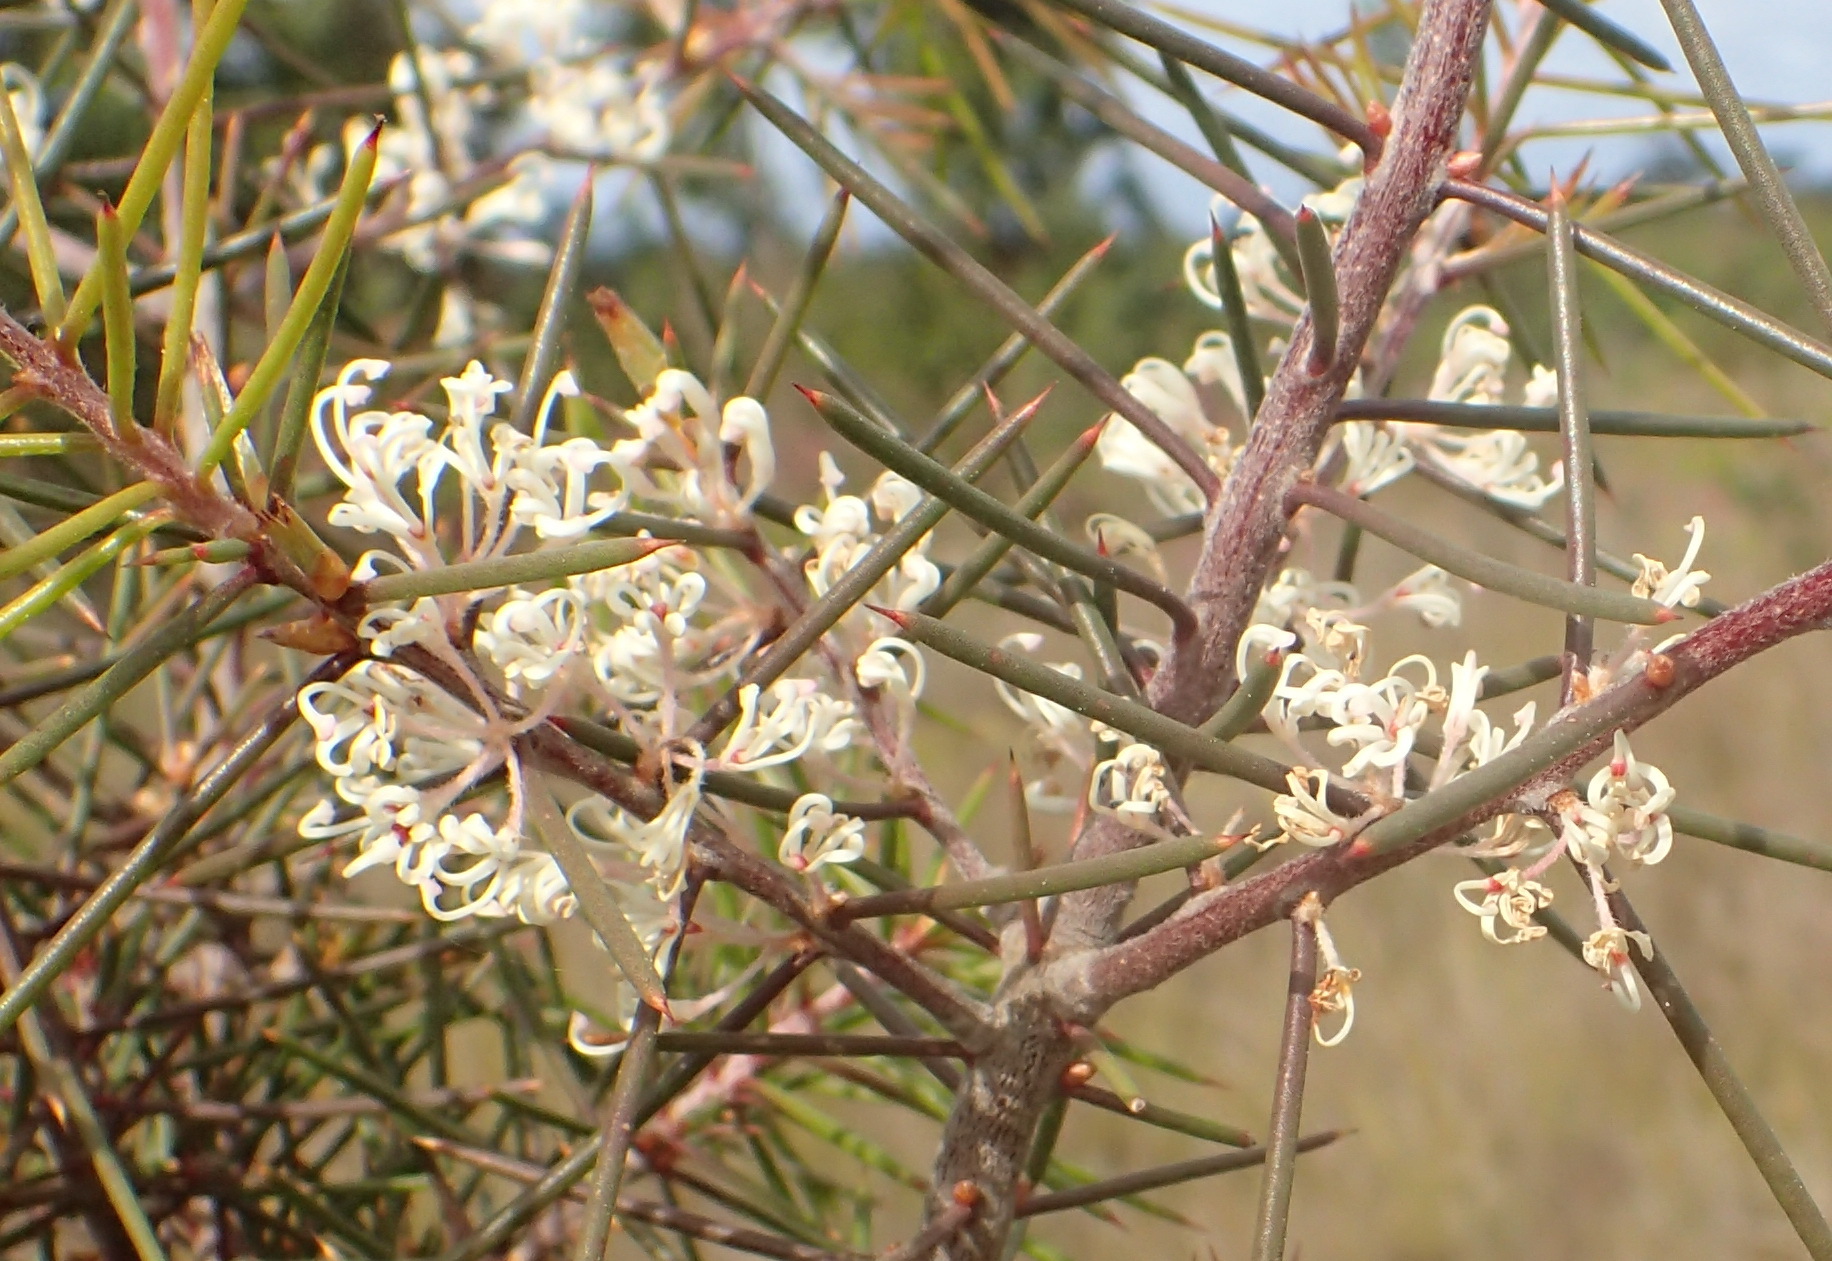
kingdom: Plantae
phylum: Tracheophyta
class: Magnoliopsida
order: Proteales
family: Proteaceae
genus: Hakea
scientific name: Hakea sericea
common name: Needle bush
